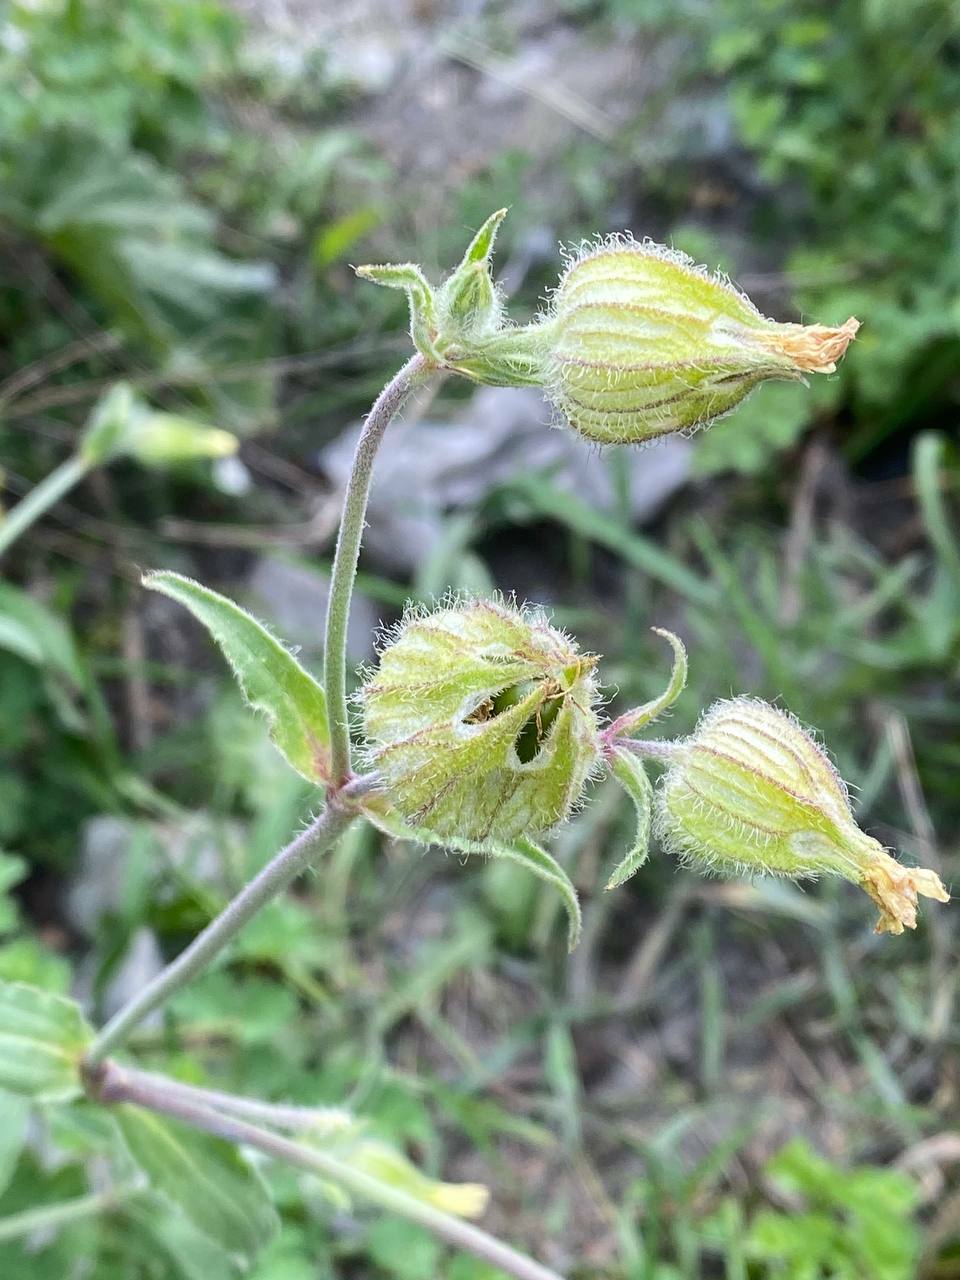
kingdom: Plantae
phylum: Tracheophyta
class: Magnoliopsida
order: Caryophyllales
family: Caryophyllaceae
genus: Silene
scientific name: Silene latifolia
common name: White campion
